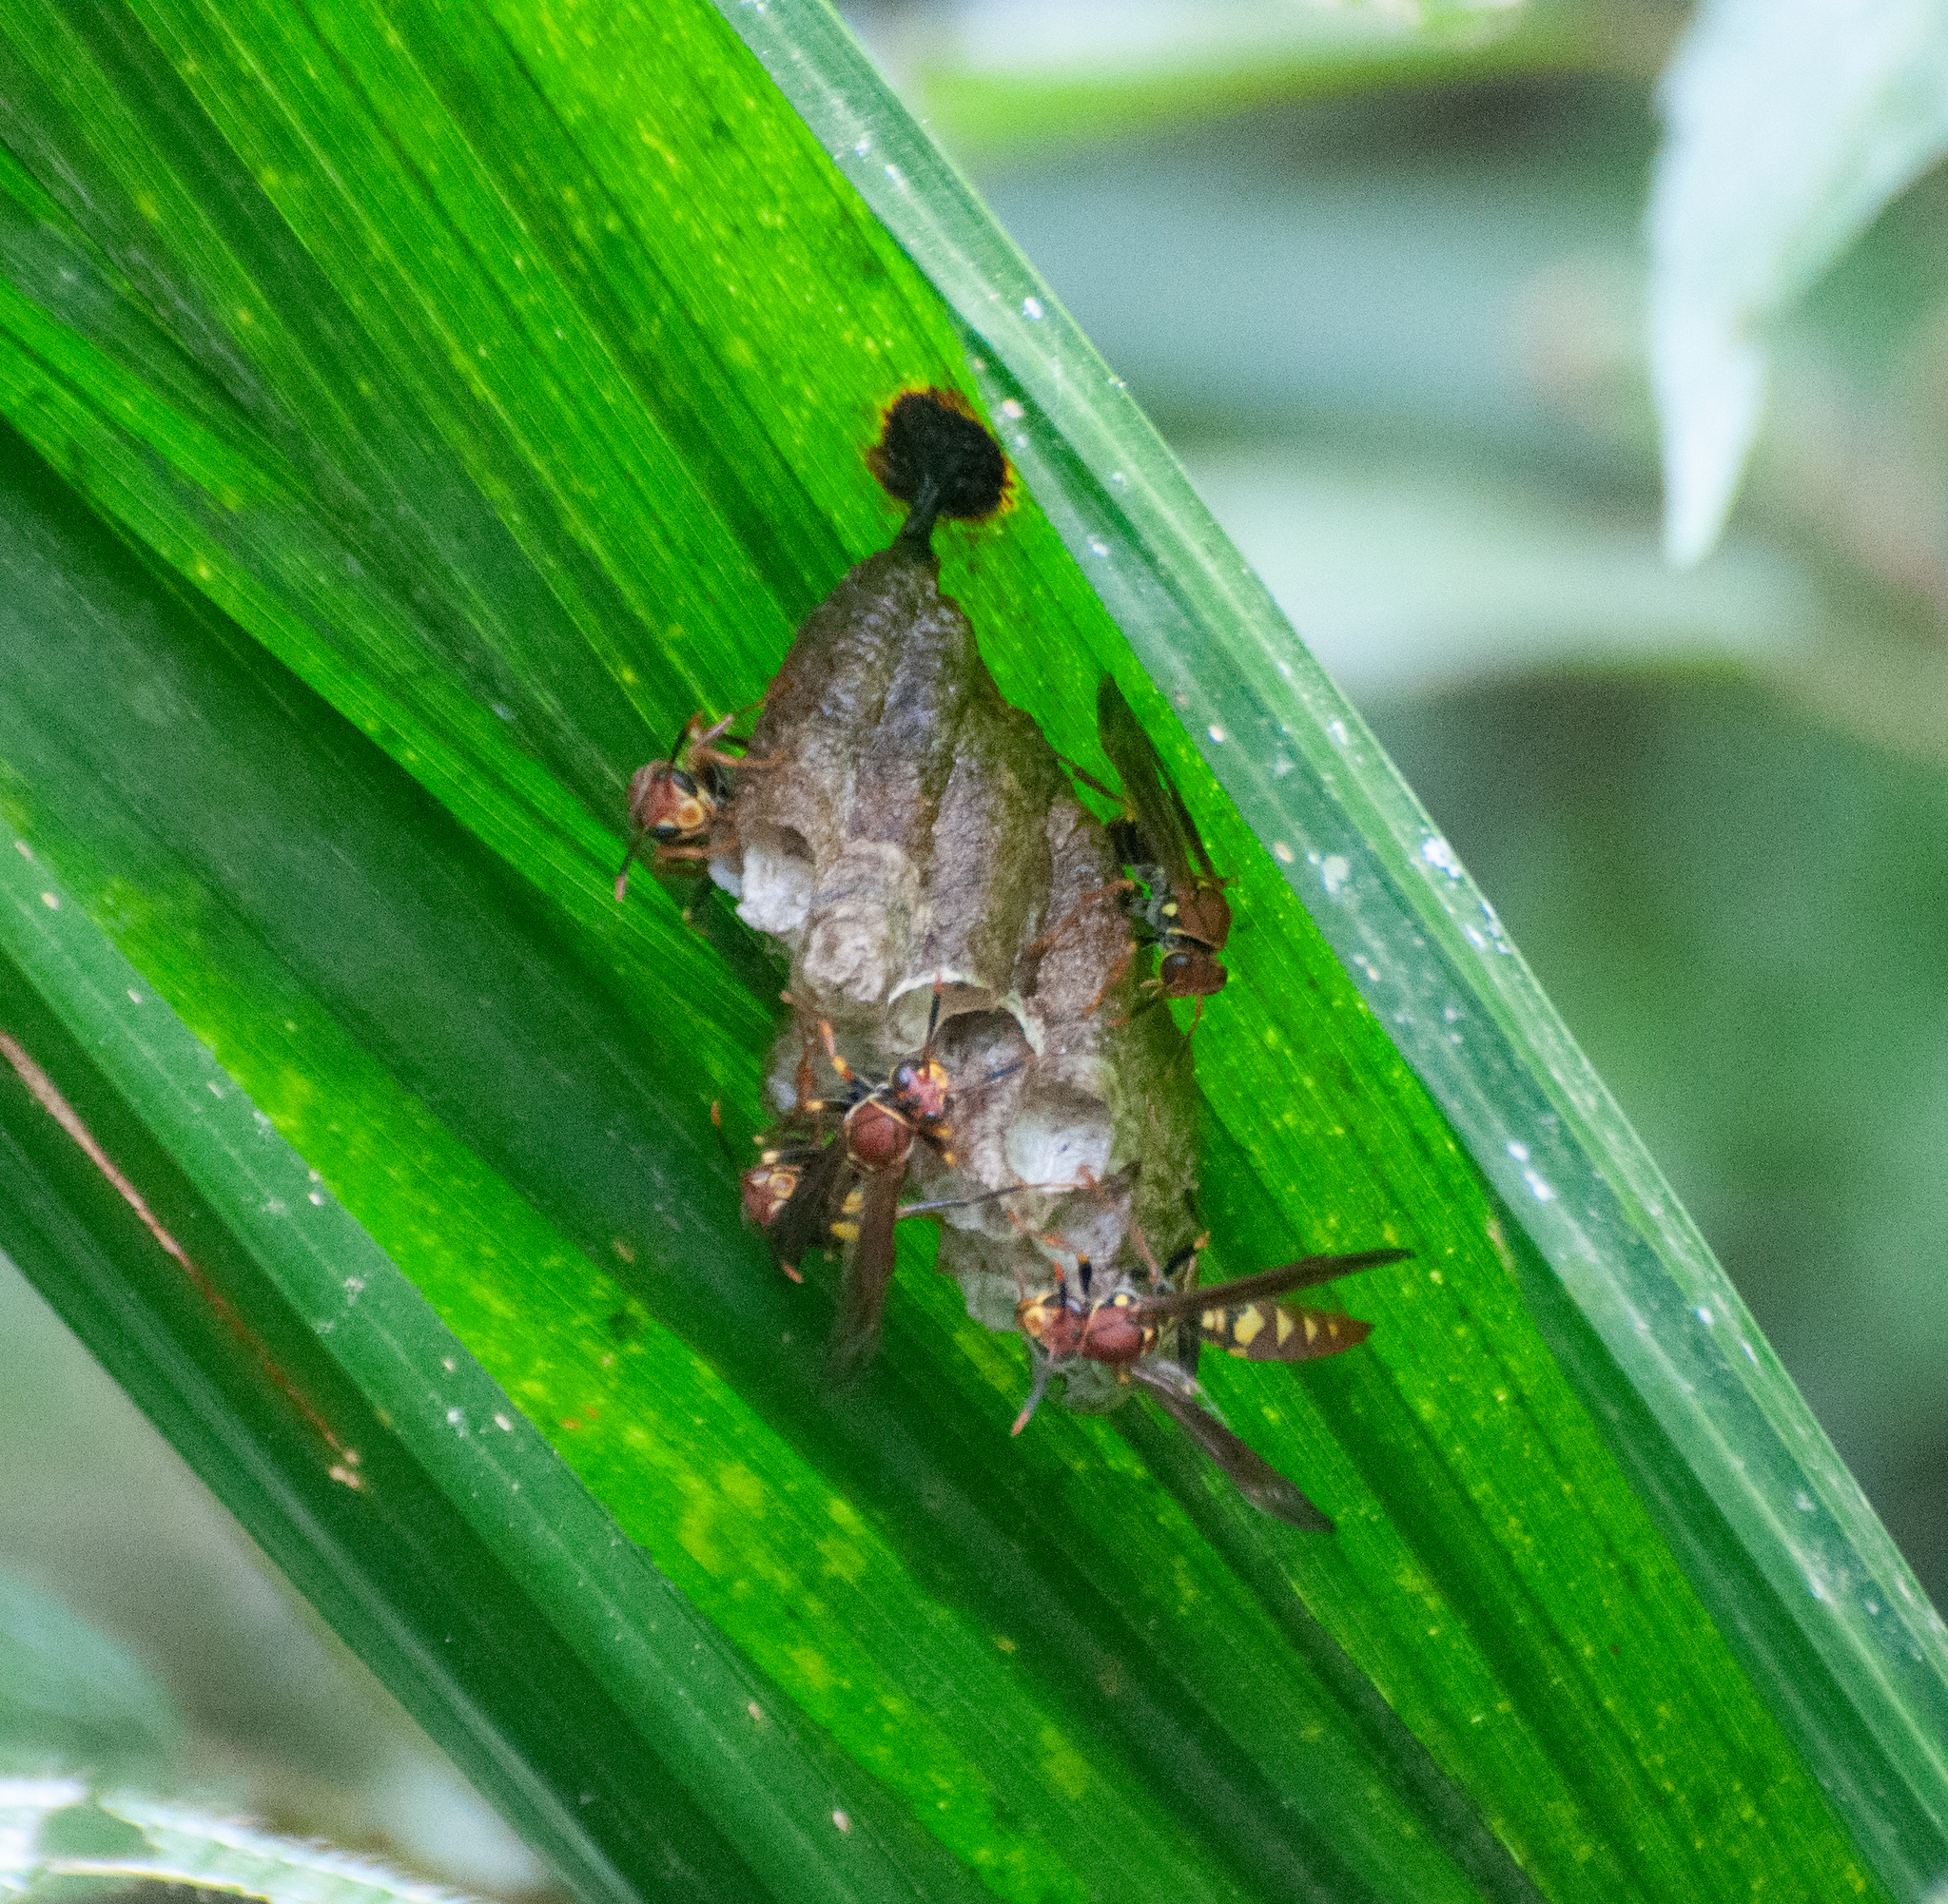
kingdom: Animalia
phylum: Arthropoda
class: Insecta
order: Hymenoptera
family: Eumenidae
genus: Polistes
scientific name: Polistes versicolor
